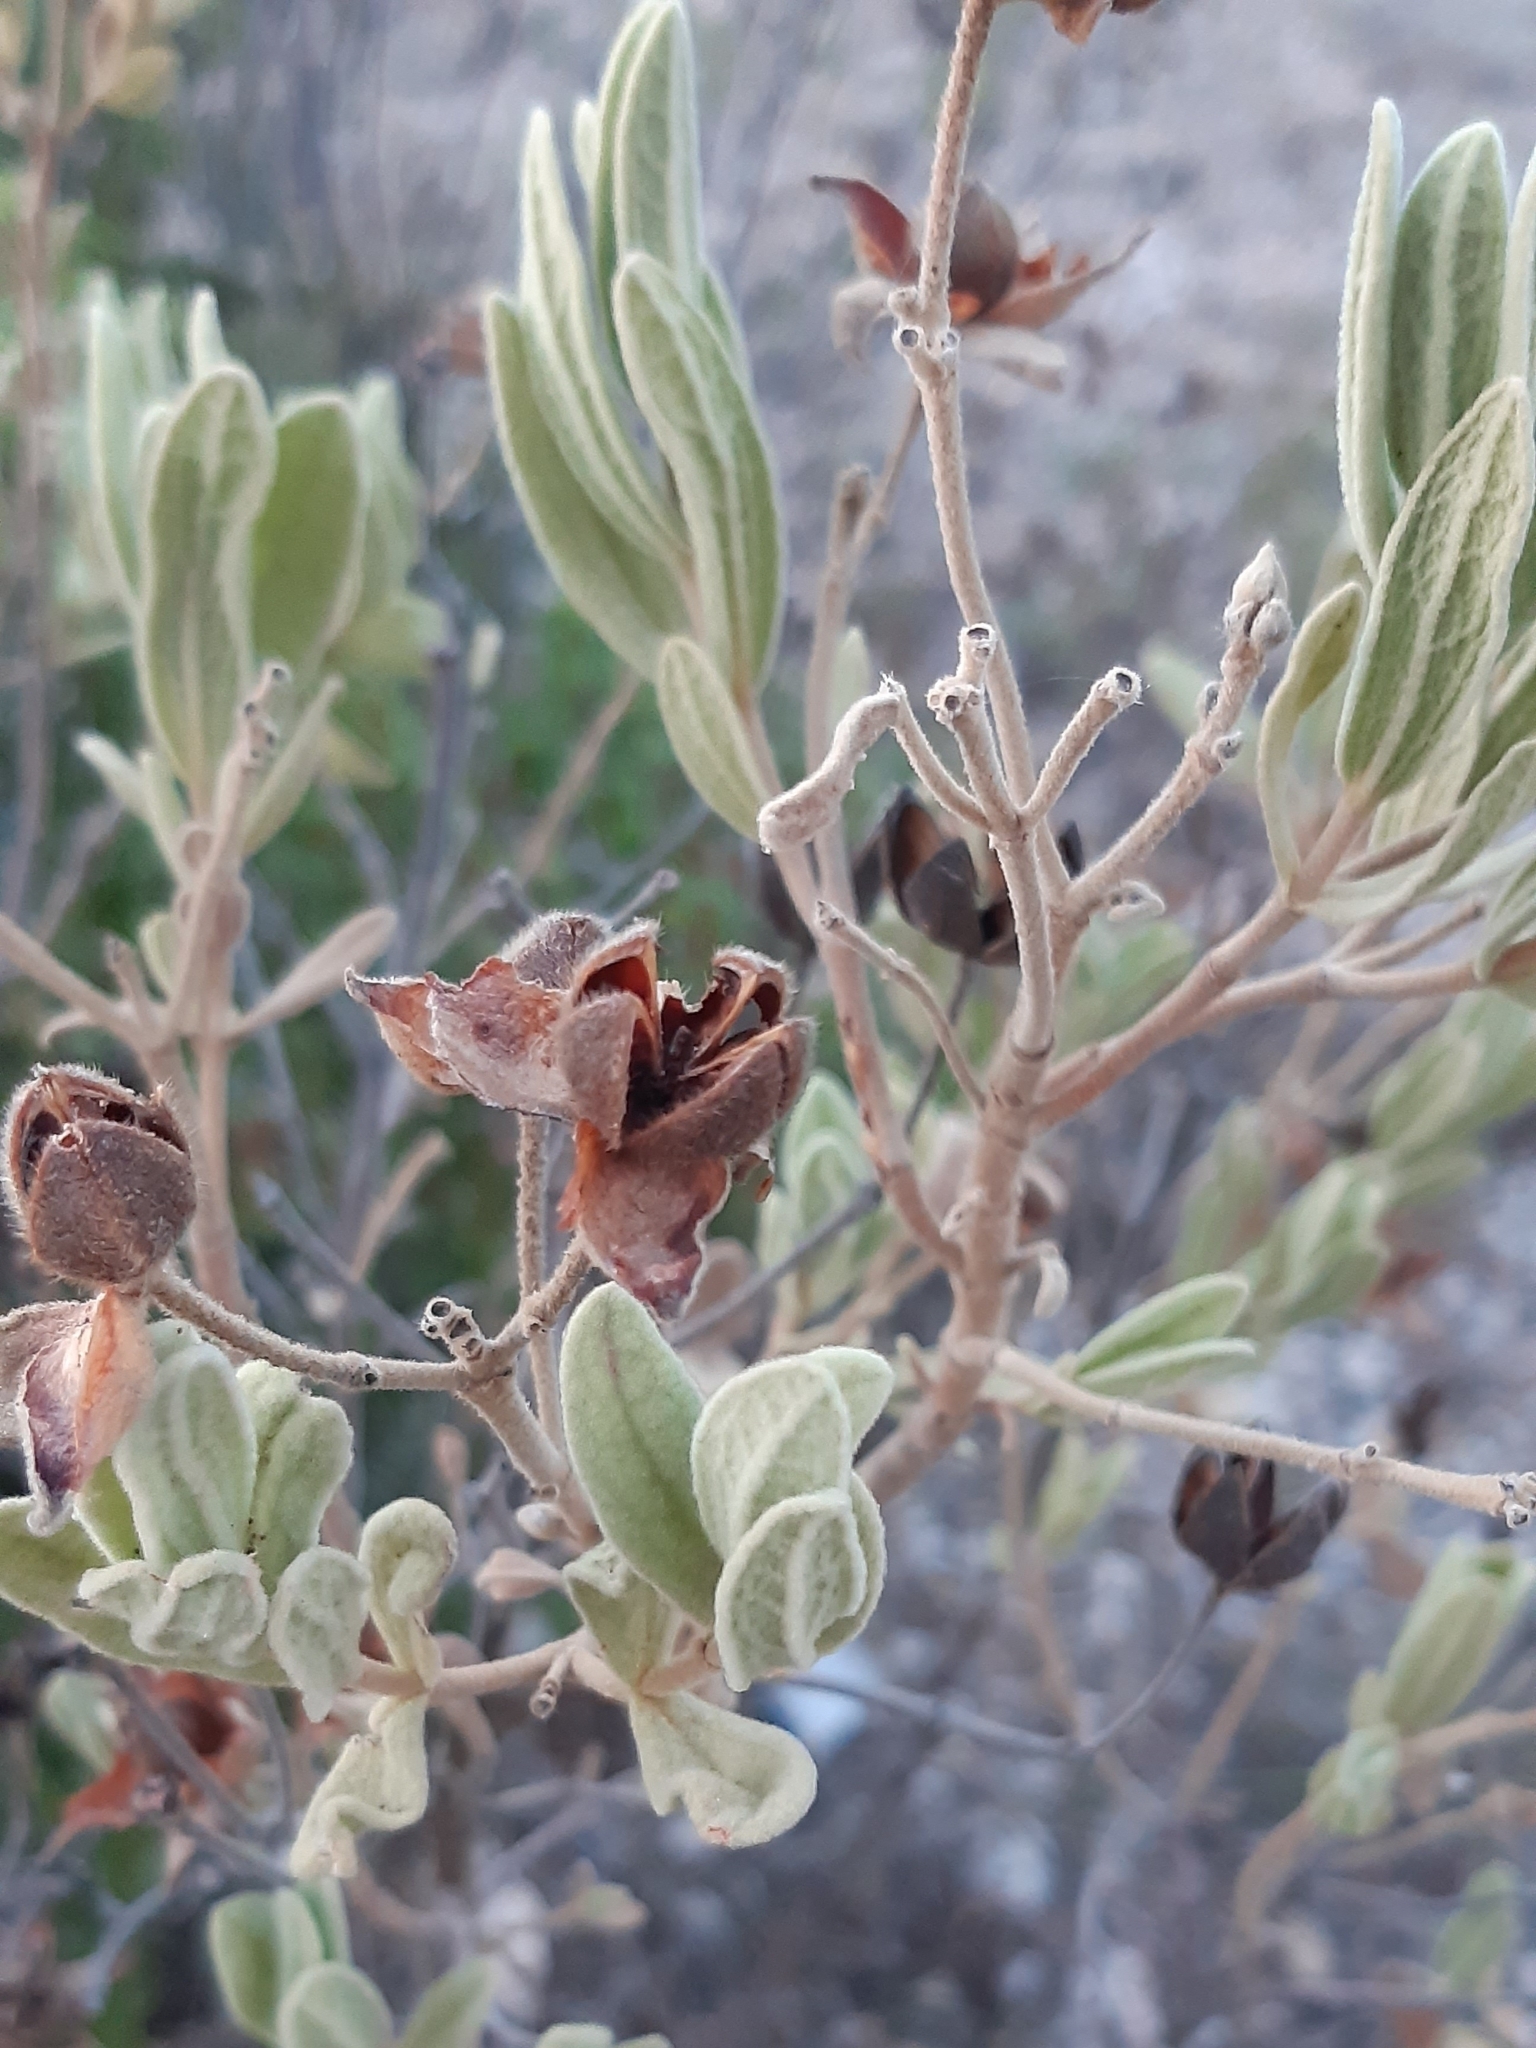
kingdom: Plantae
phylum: Tracheophyta
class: Magnoliopsida
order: Malvales
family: Cistaceae
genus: Cistus
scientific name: Cistus albidus
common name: White-leaf rock-rose
